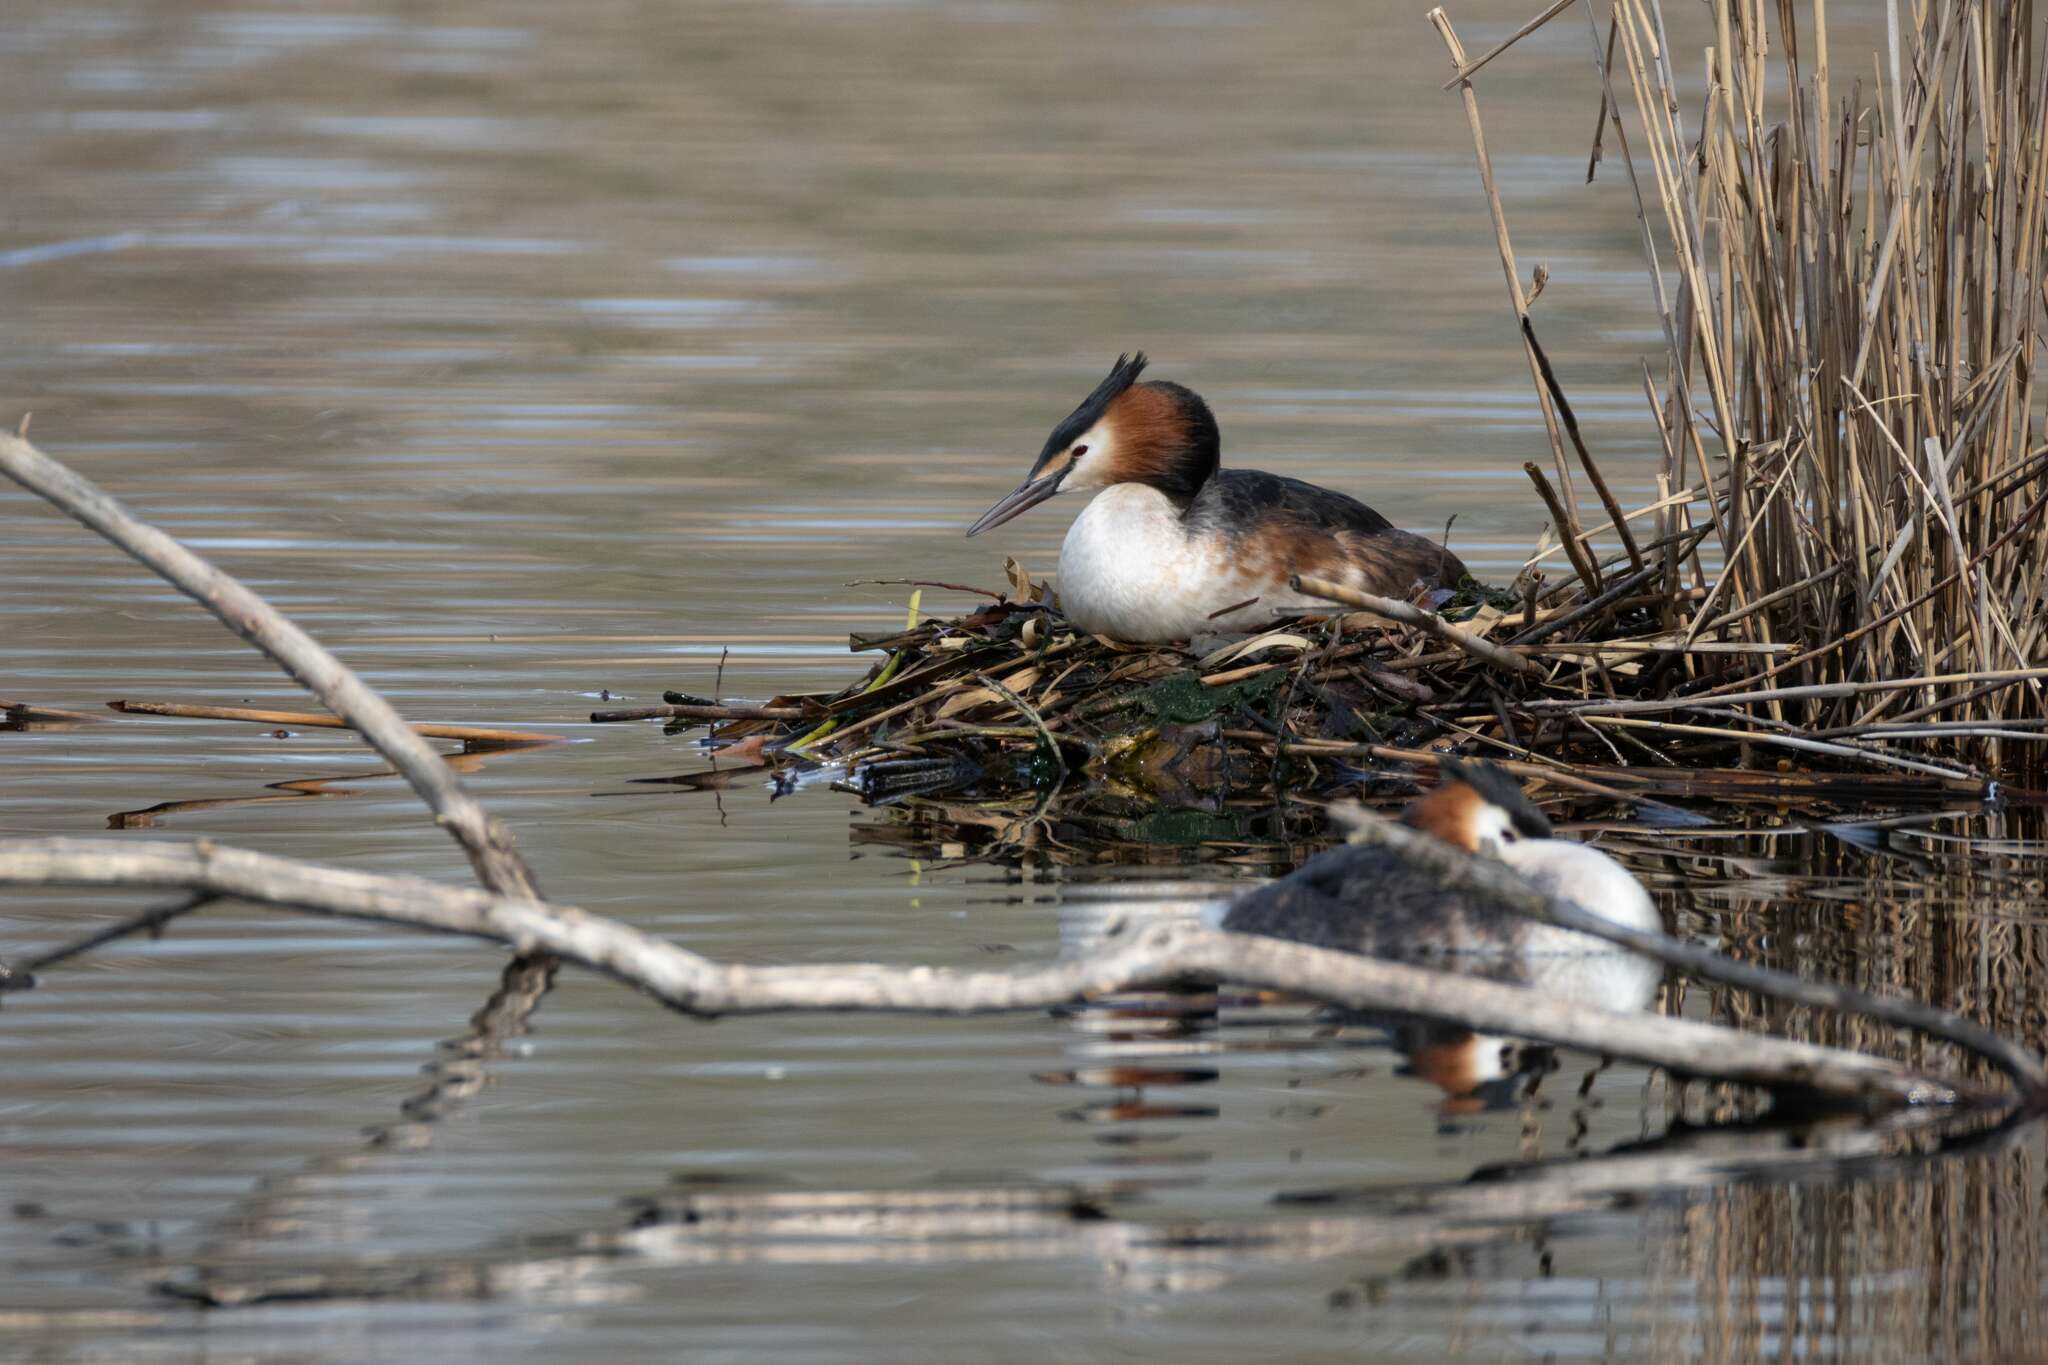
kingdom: Animalia
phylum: Chordata
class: Aves
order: Podicipediformes
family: Podicipedidae
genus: Podiceps
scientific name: Podiceps cristatus
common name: Great crested grebe
